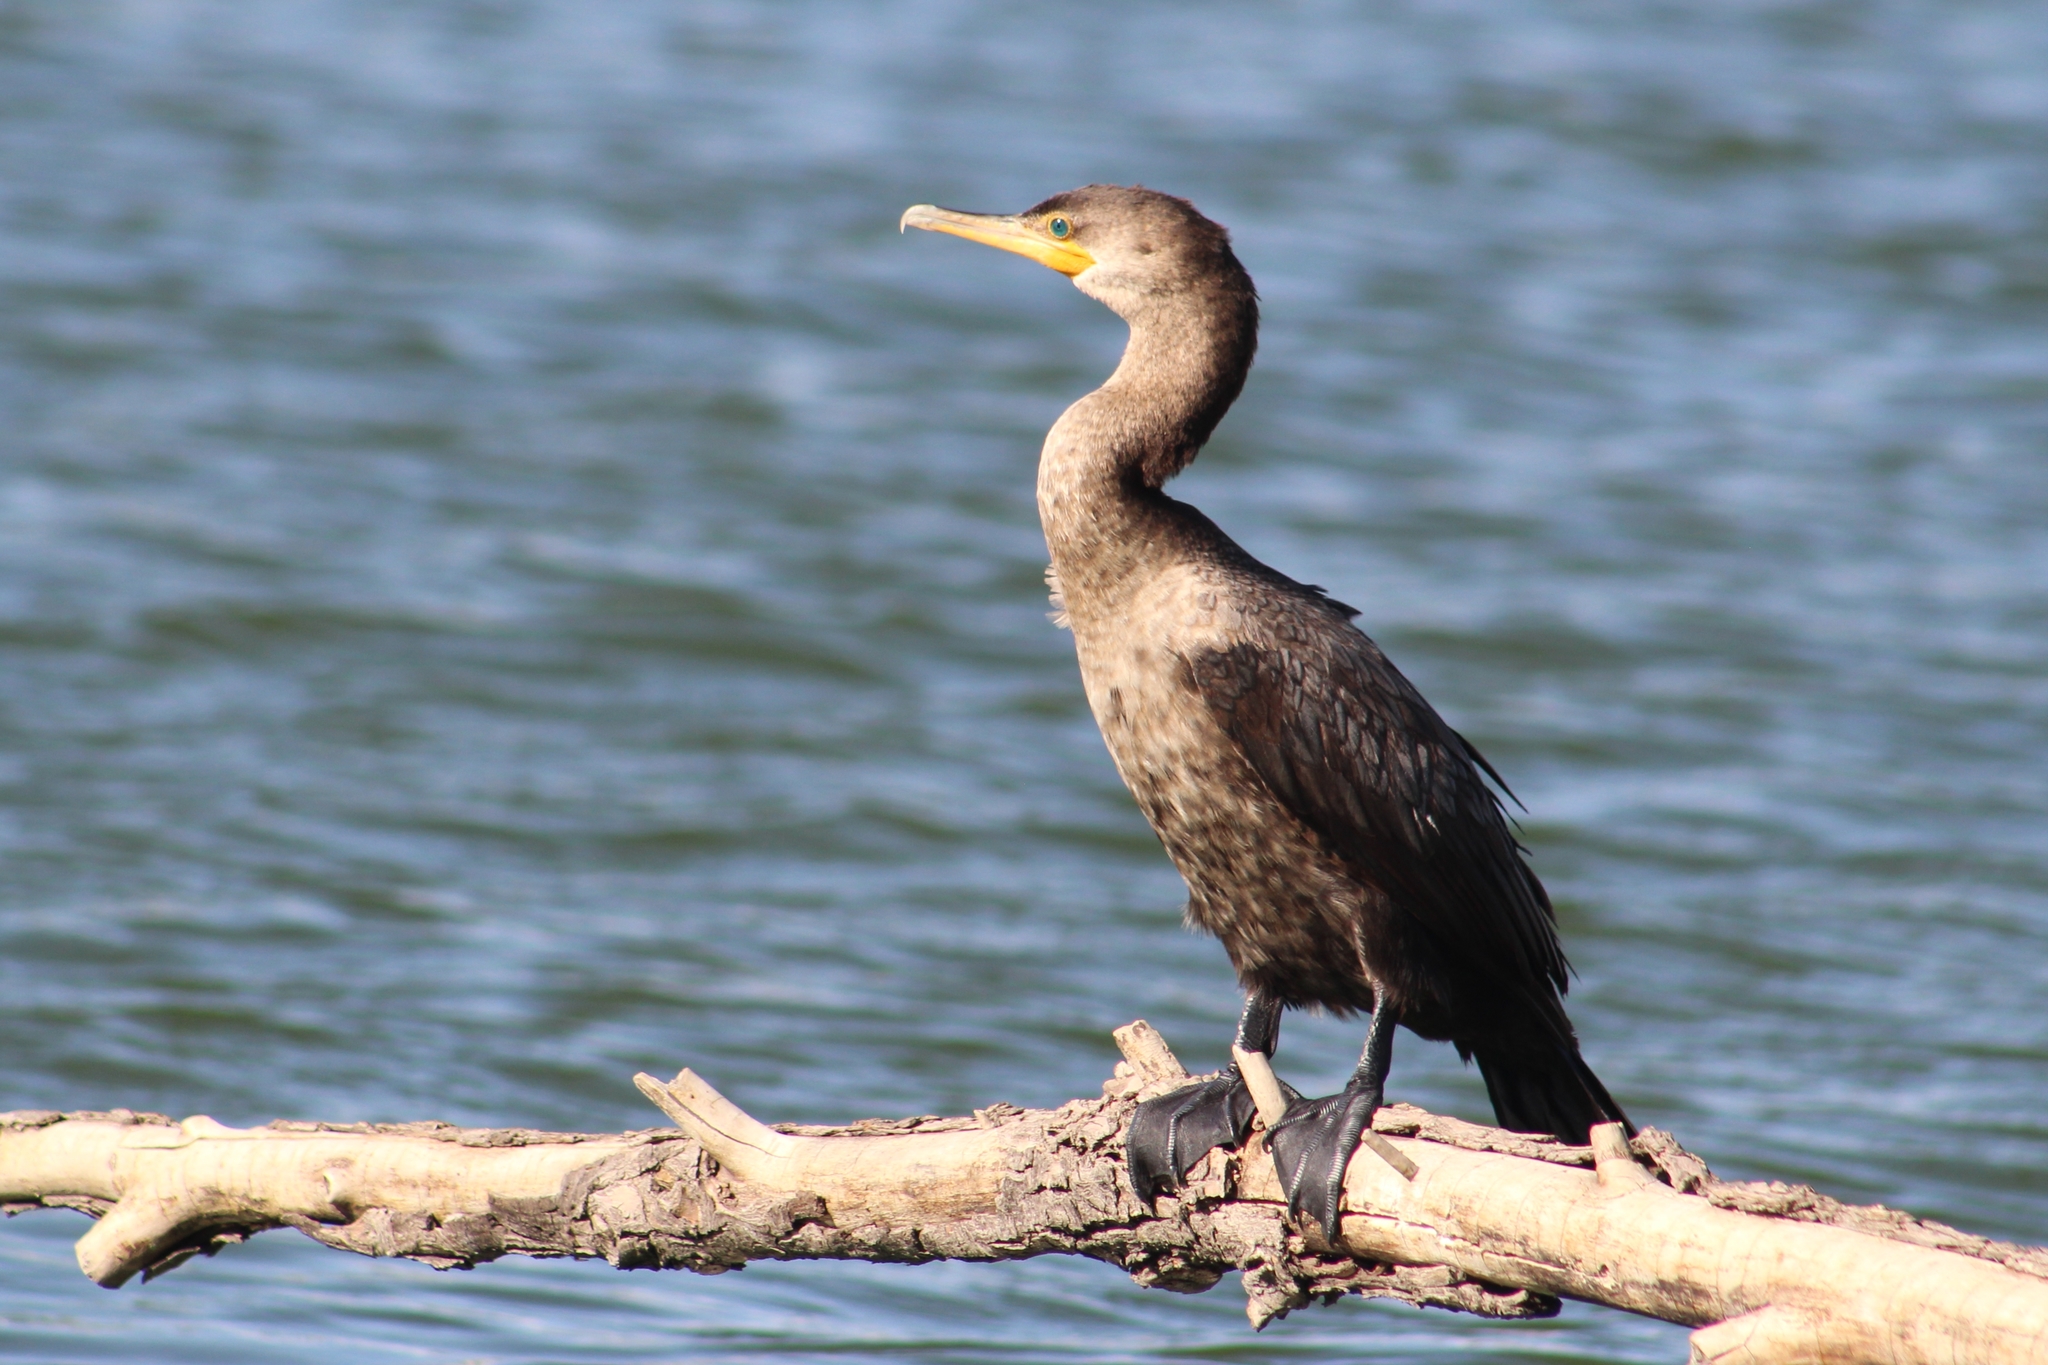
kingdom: Animalia
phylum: Chordata
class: Aves
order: Suliformes
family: Phalacrocoracidae
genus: Phalacrocorax
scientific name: Phalacrocorax brasilianus
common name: Neotropic cormorant
